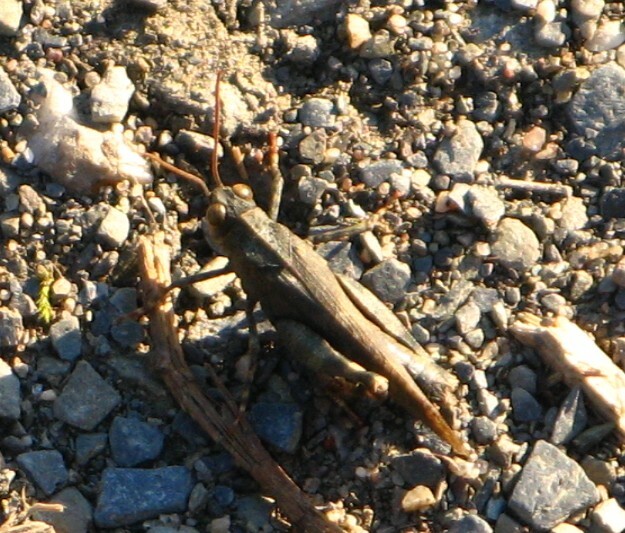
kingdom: Animalia
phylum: Arthropoda
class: Insecta
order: Orthoptera
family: Acrididae
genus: Oedipoda
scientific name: Oedipoda caerulescens
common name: Blue-winged grasshopper
